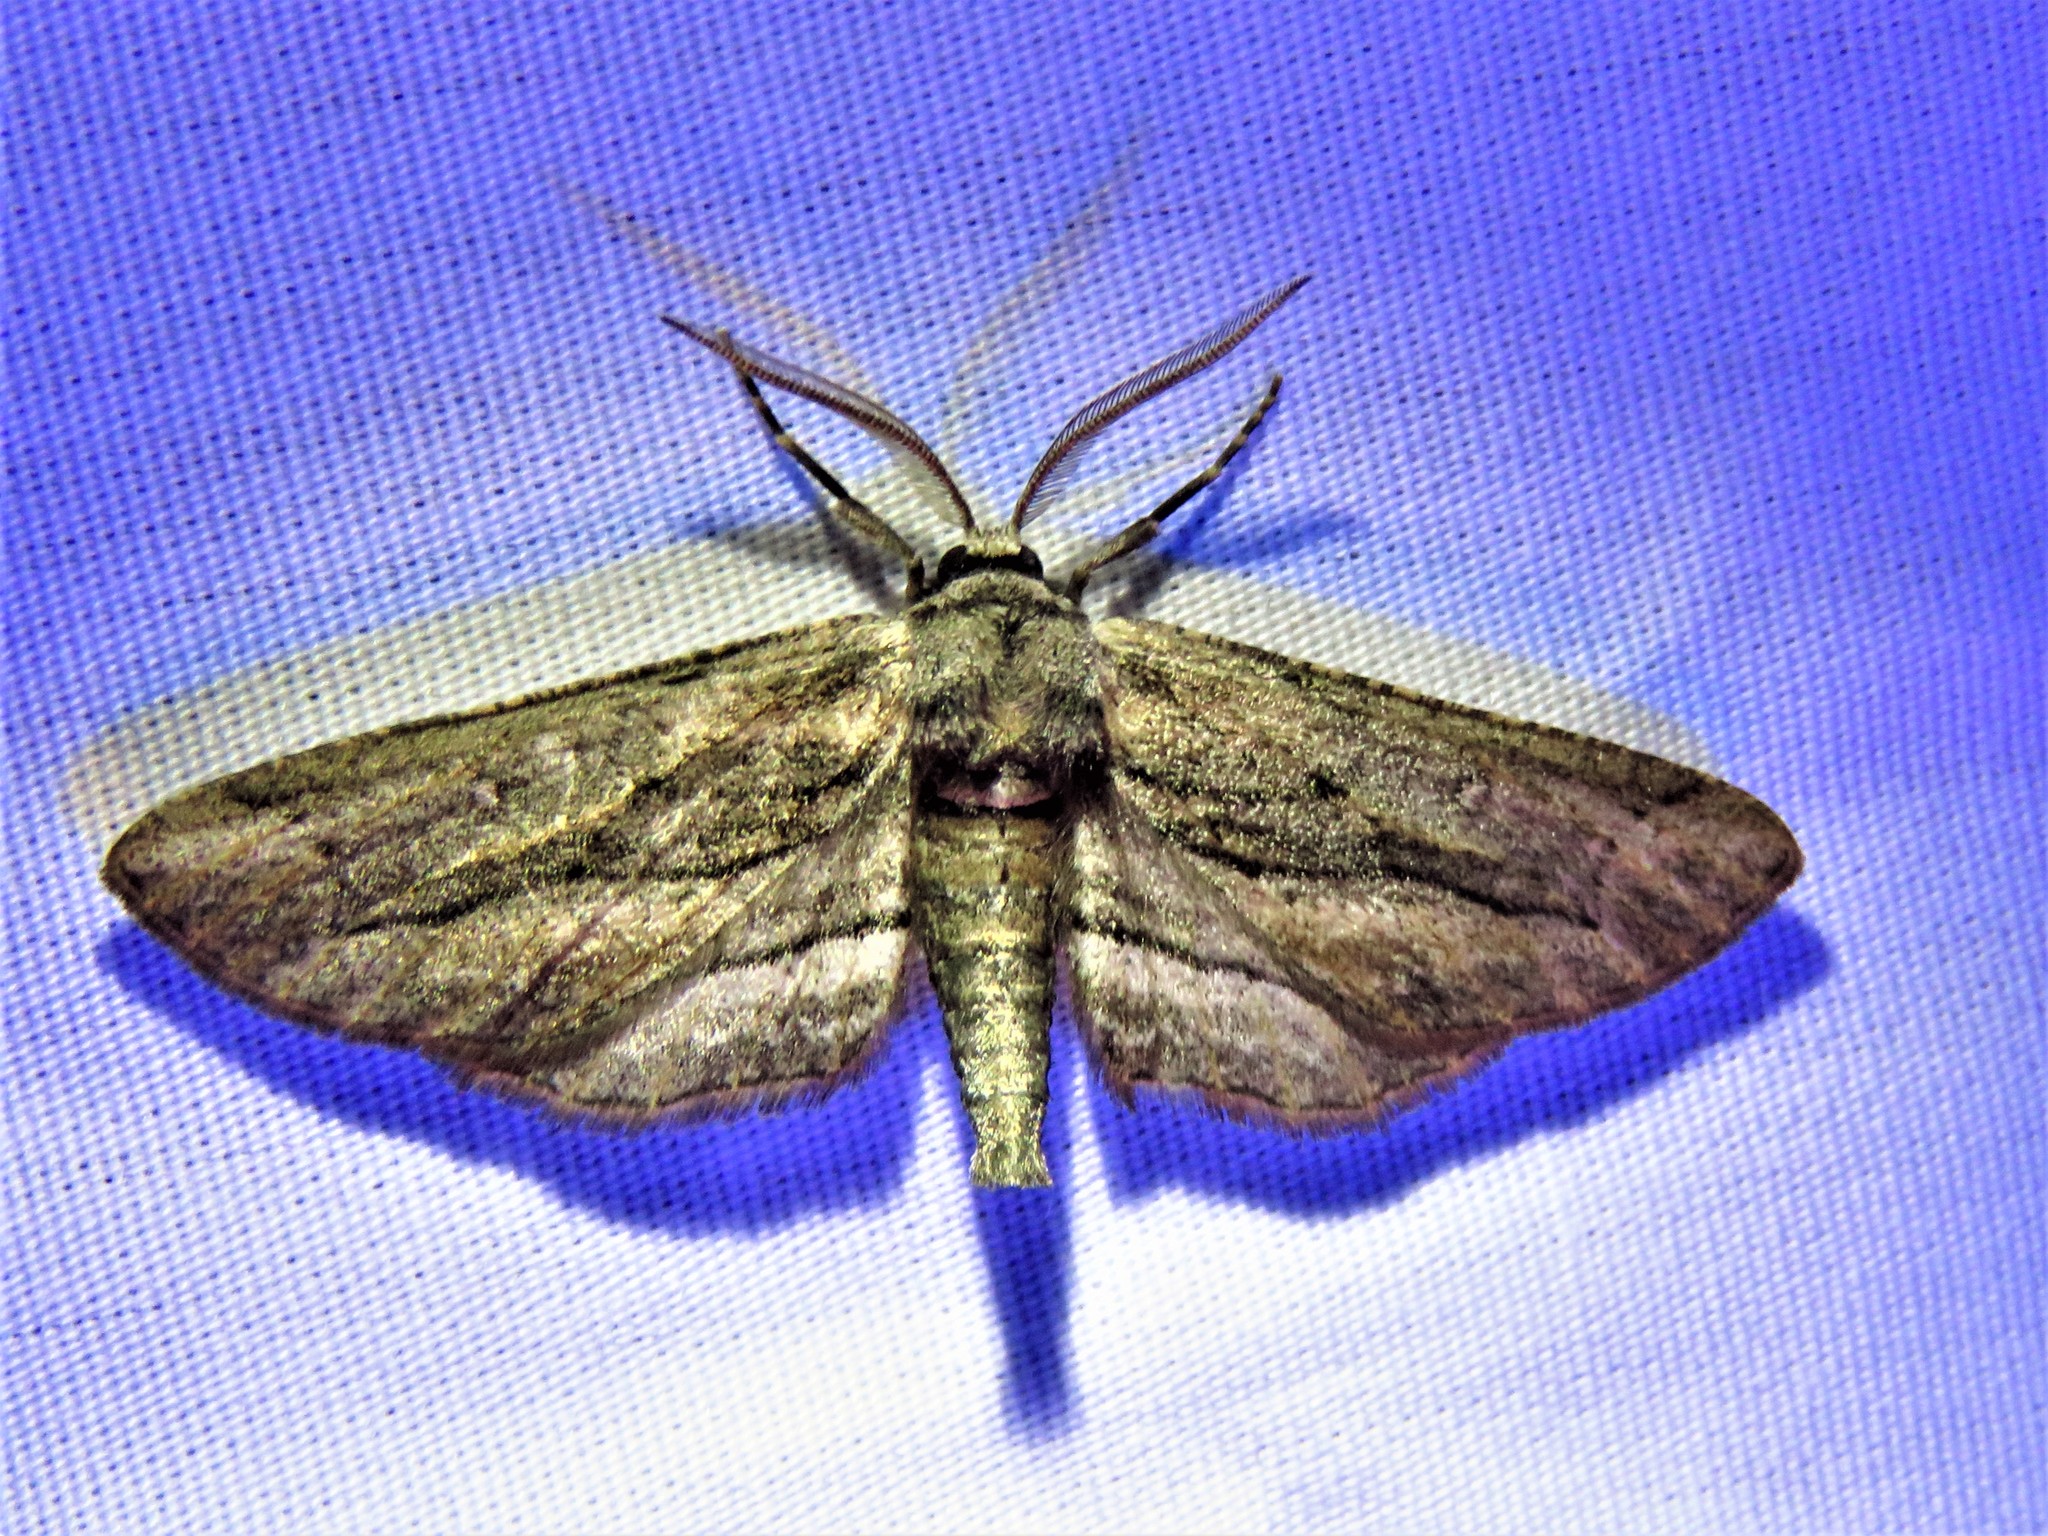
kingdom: Animalia
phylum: Arthropoda
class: Insecta
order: Lepidoptera
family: Geometridae
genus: Holochroa
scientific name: Holochroa dissociarius
